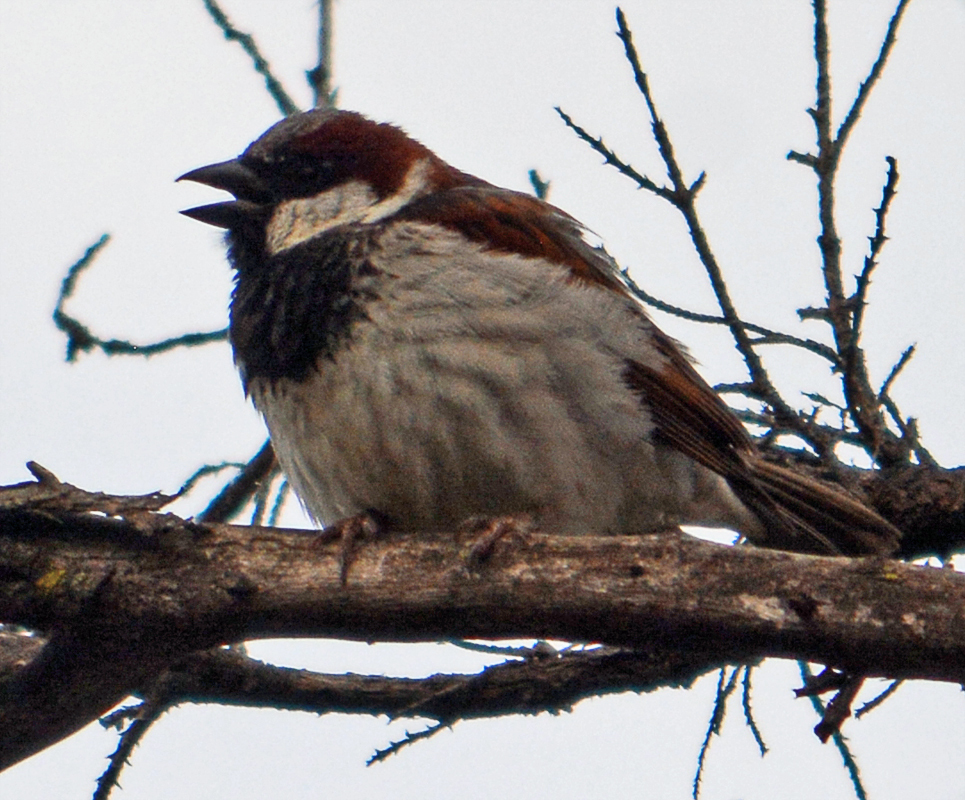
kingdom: Animalia
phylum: Chordata
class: Aves
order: Passeriformes
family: Passeridae
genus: Passer
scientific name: Passer domesticus
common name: House sparrow
